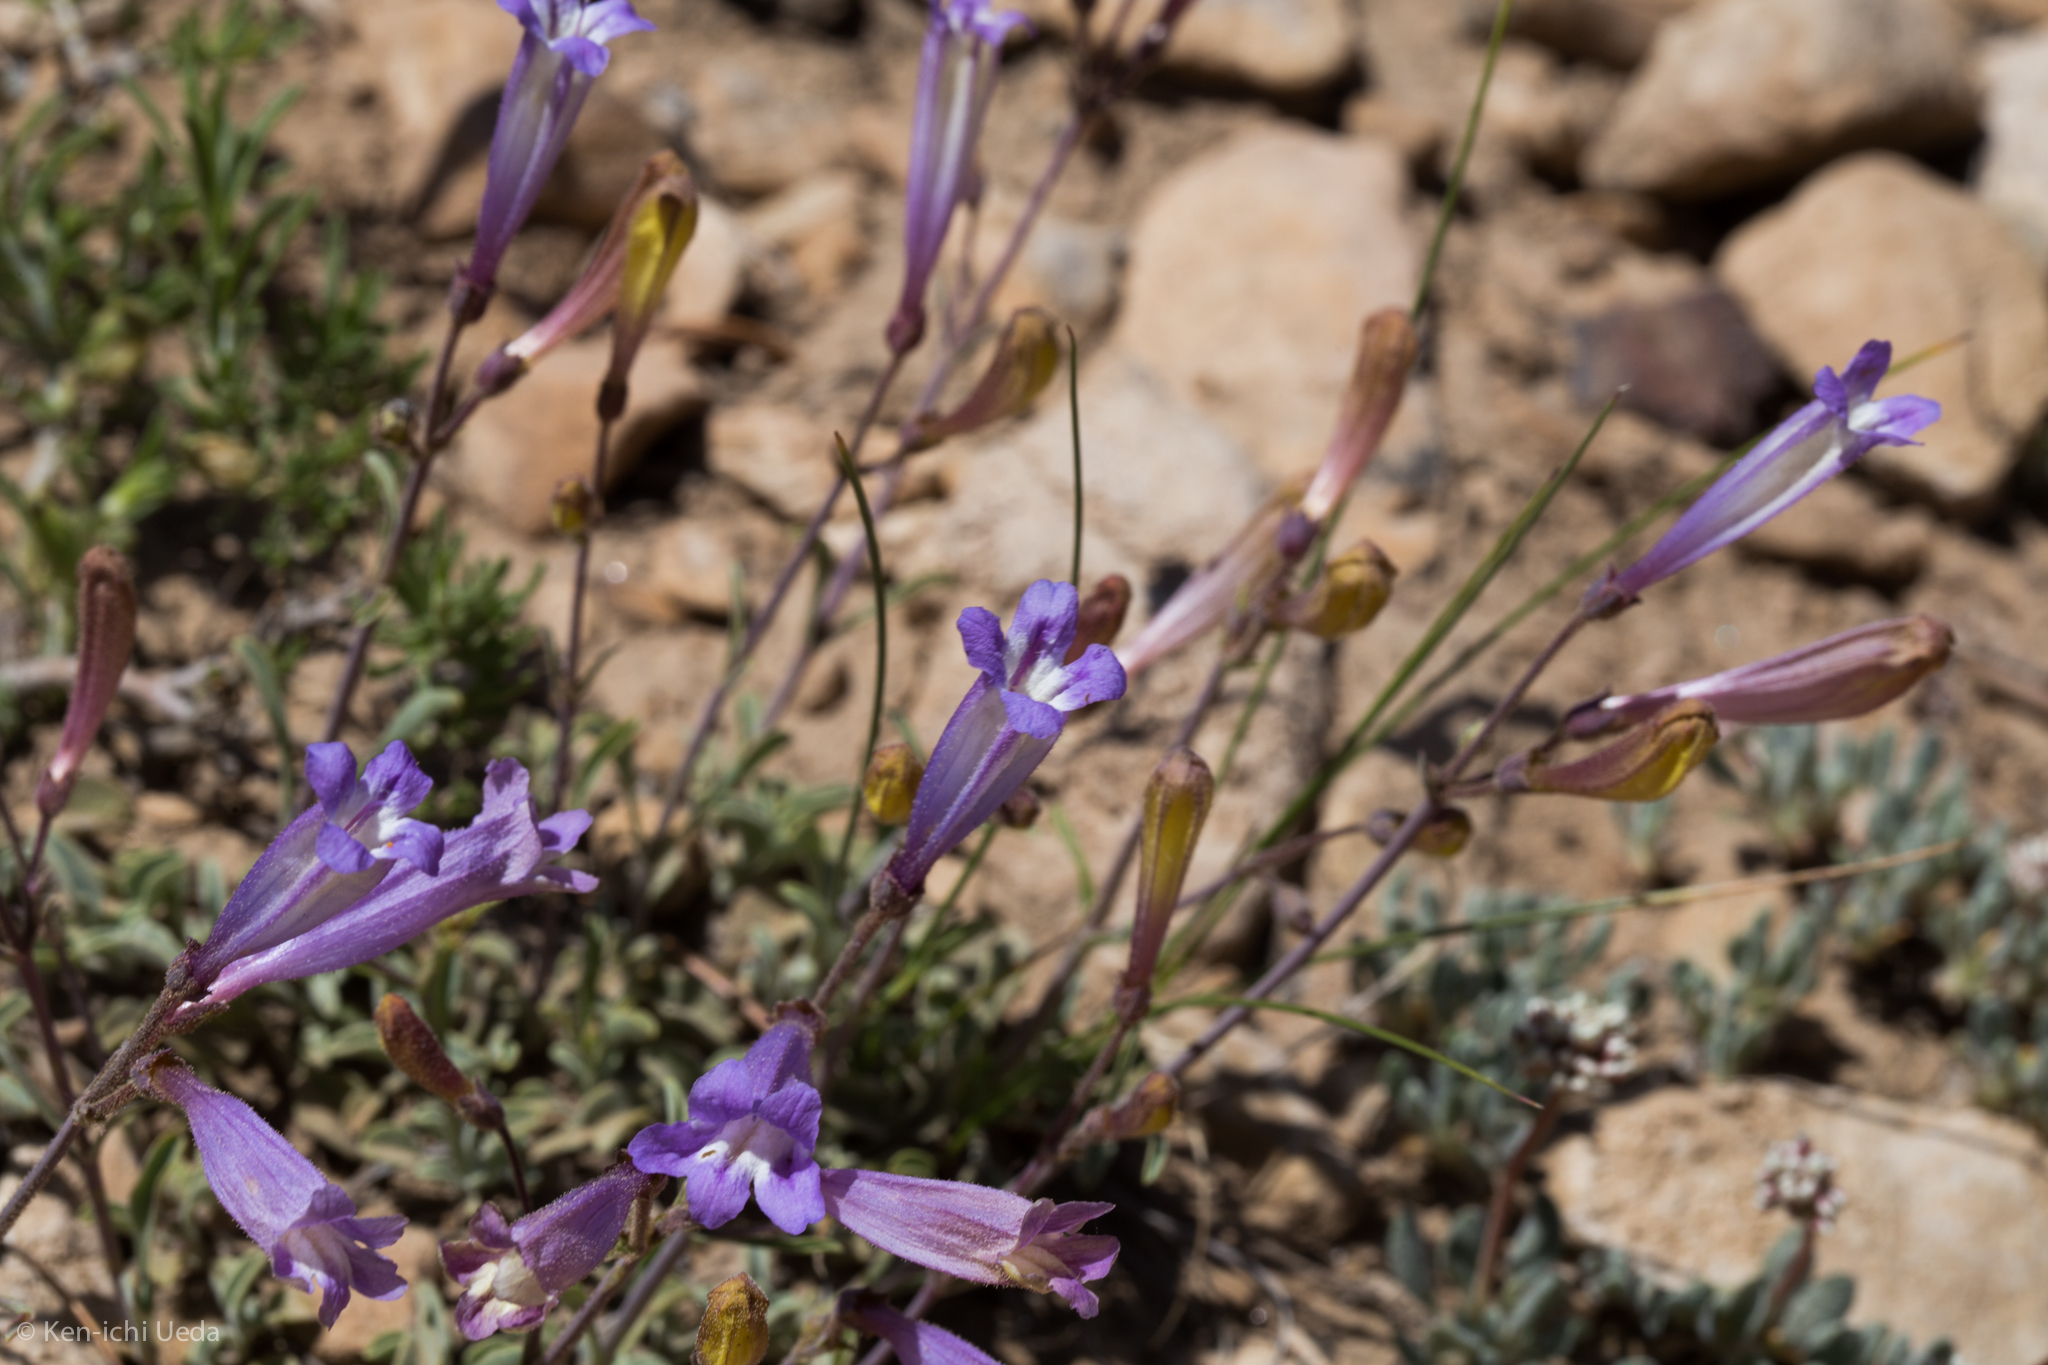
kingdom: Plantae
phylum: Tracheophyta
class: Magnoliopsida
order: Lamiales
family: Plantaginaceae
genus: Penstemon
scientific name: Penstemon scapoides
